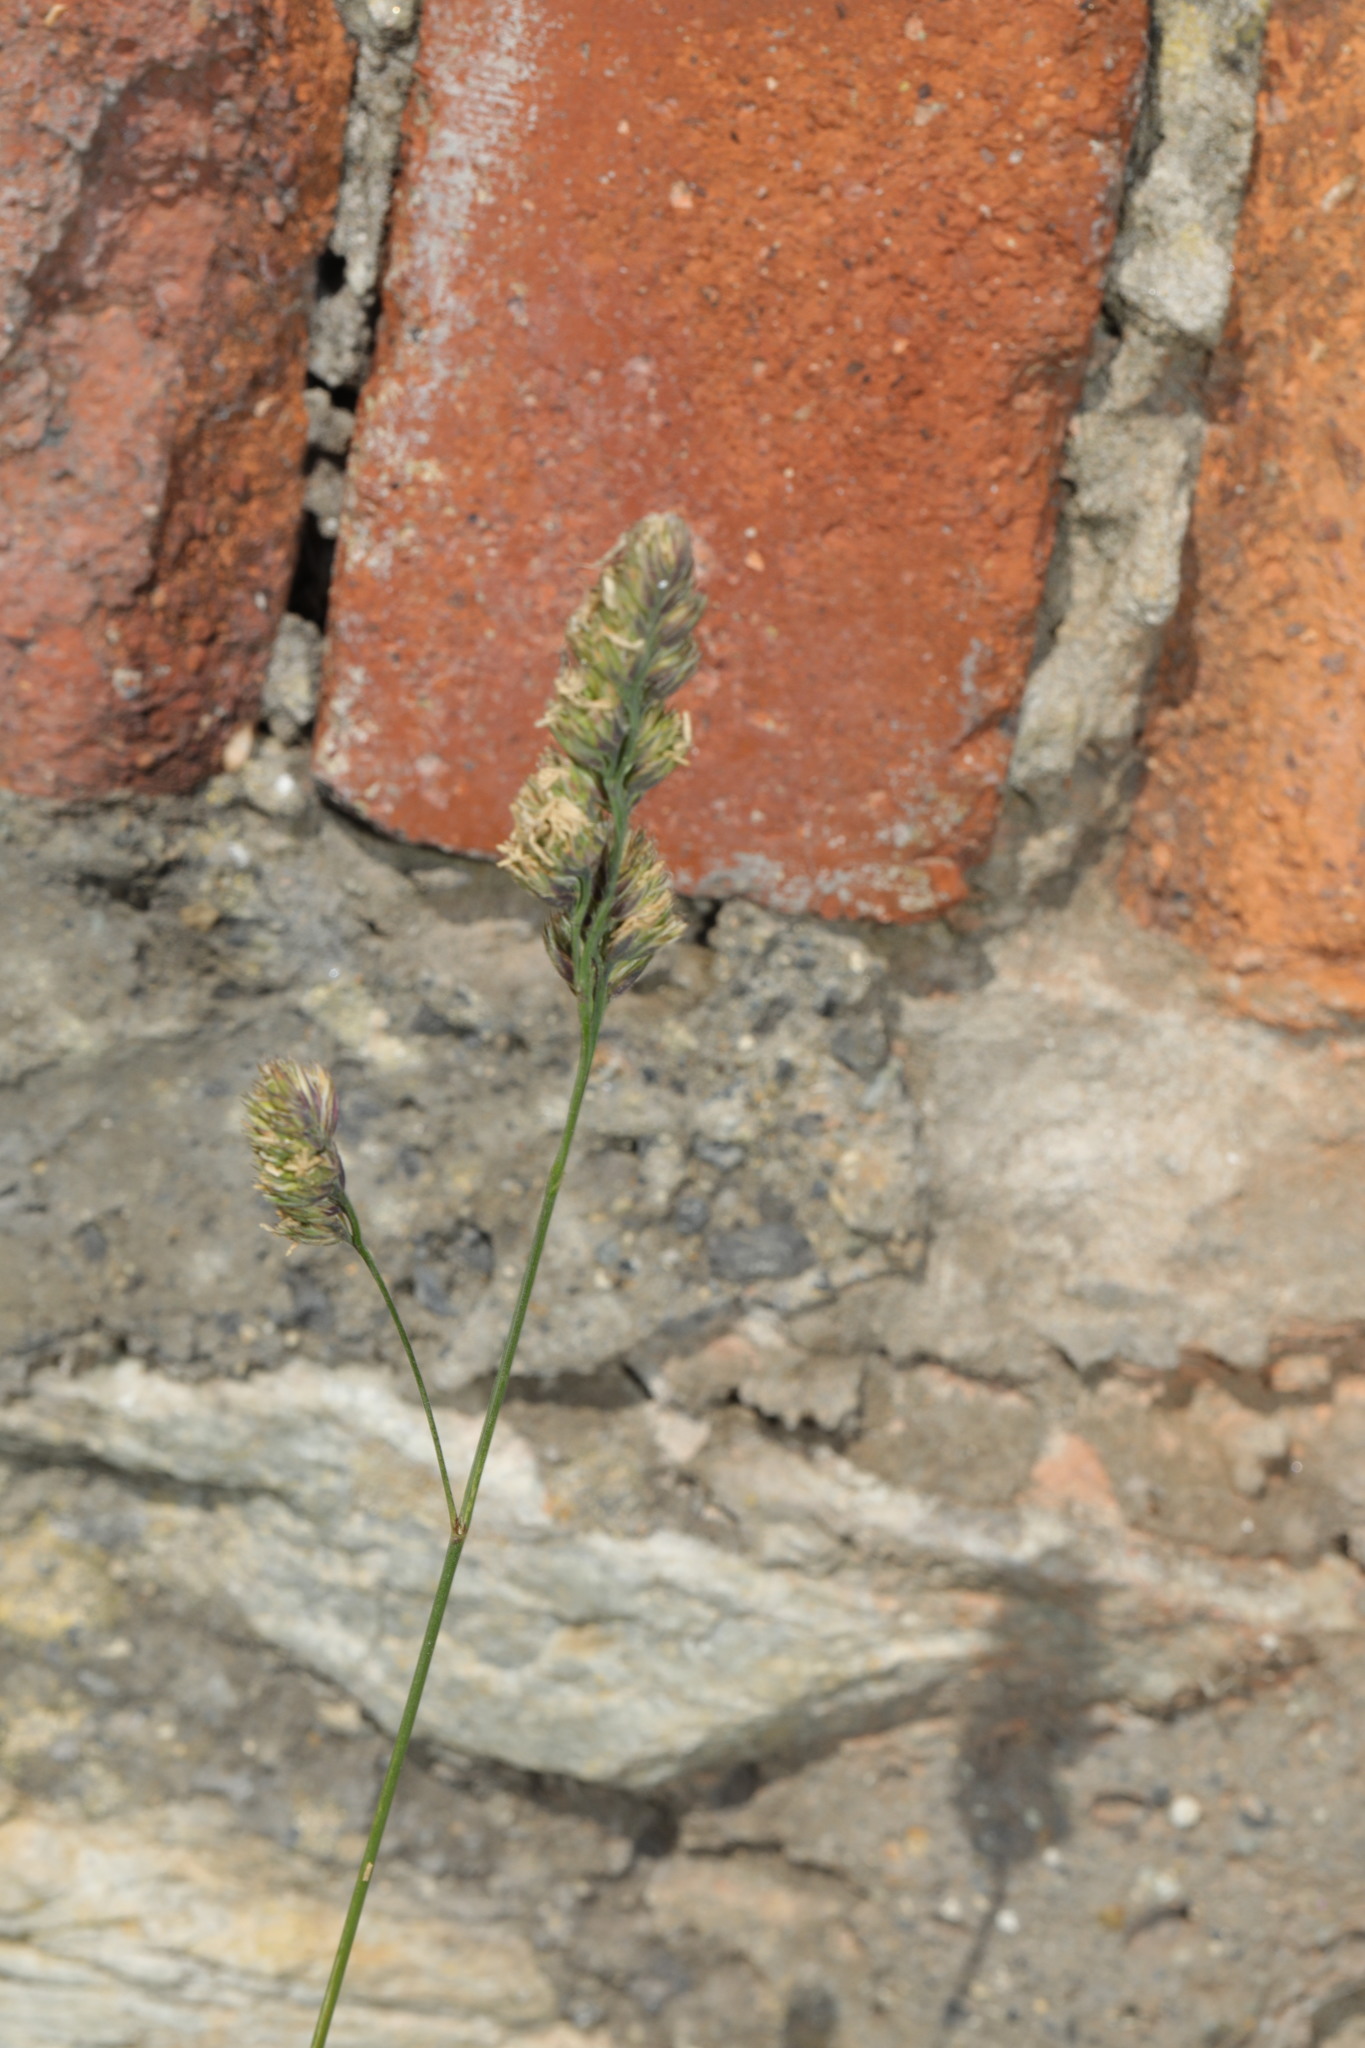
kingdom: Plantae
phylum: Tracheophyta
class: Liliopsida
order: Poales
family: Poaceae
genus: Dactylis
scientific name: Dactylis glomerata
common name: Orchardgrass
